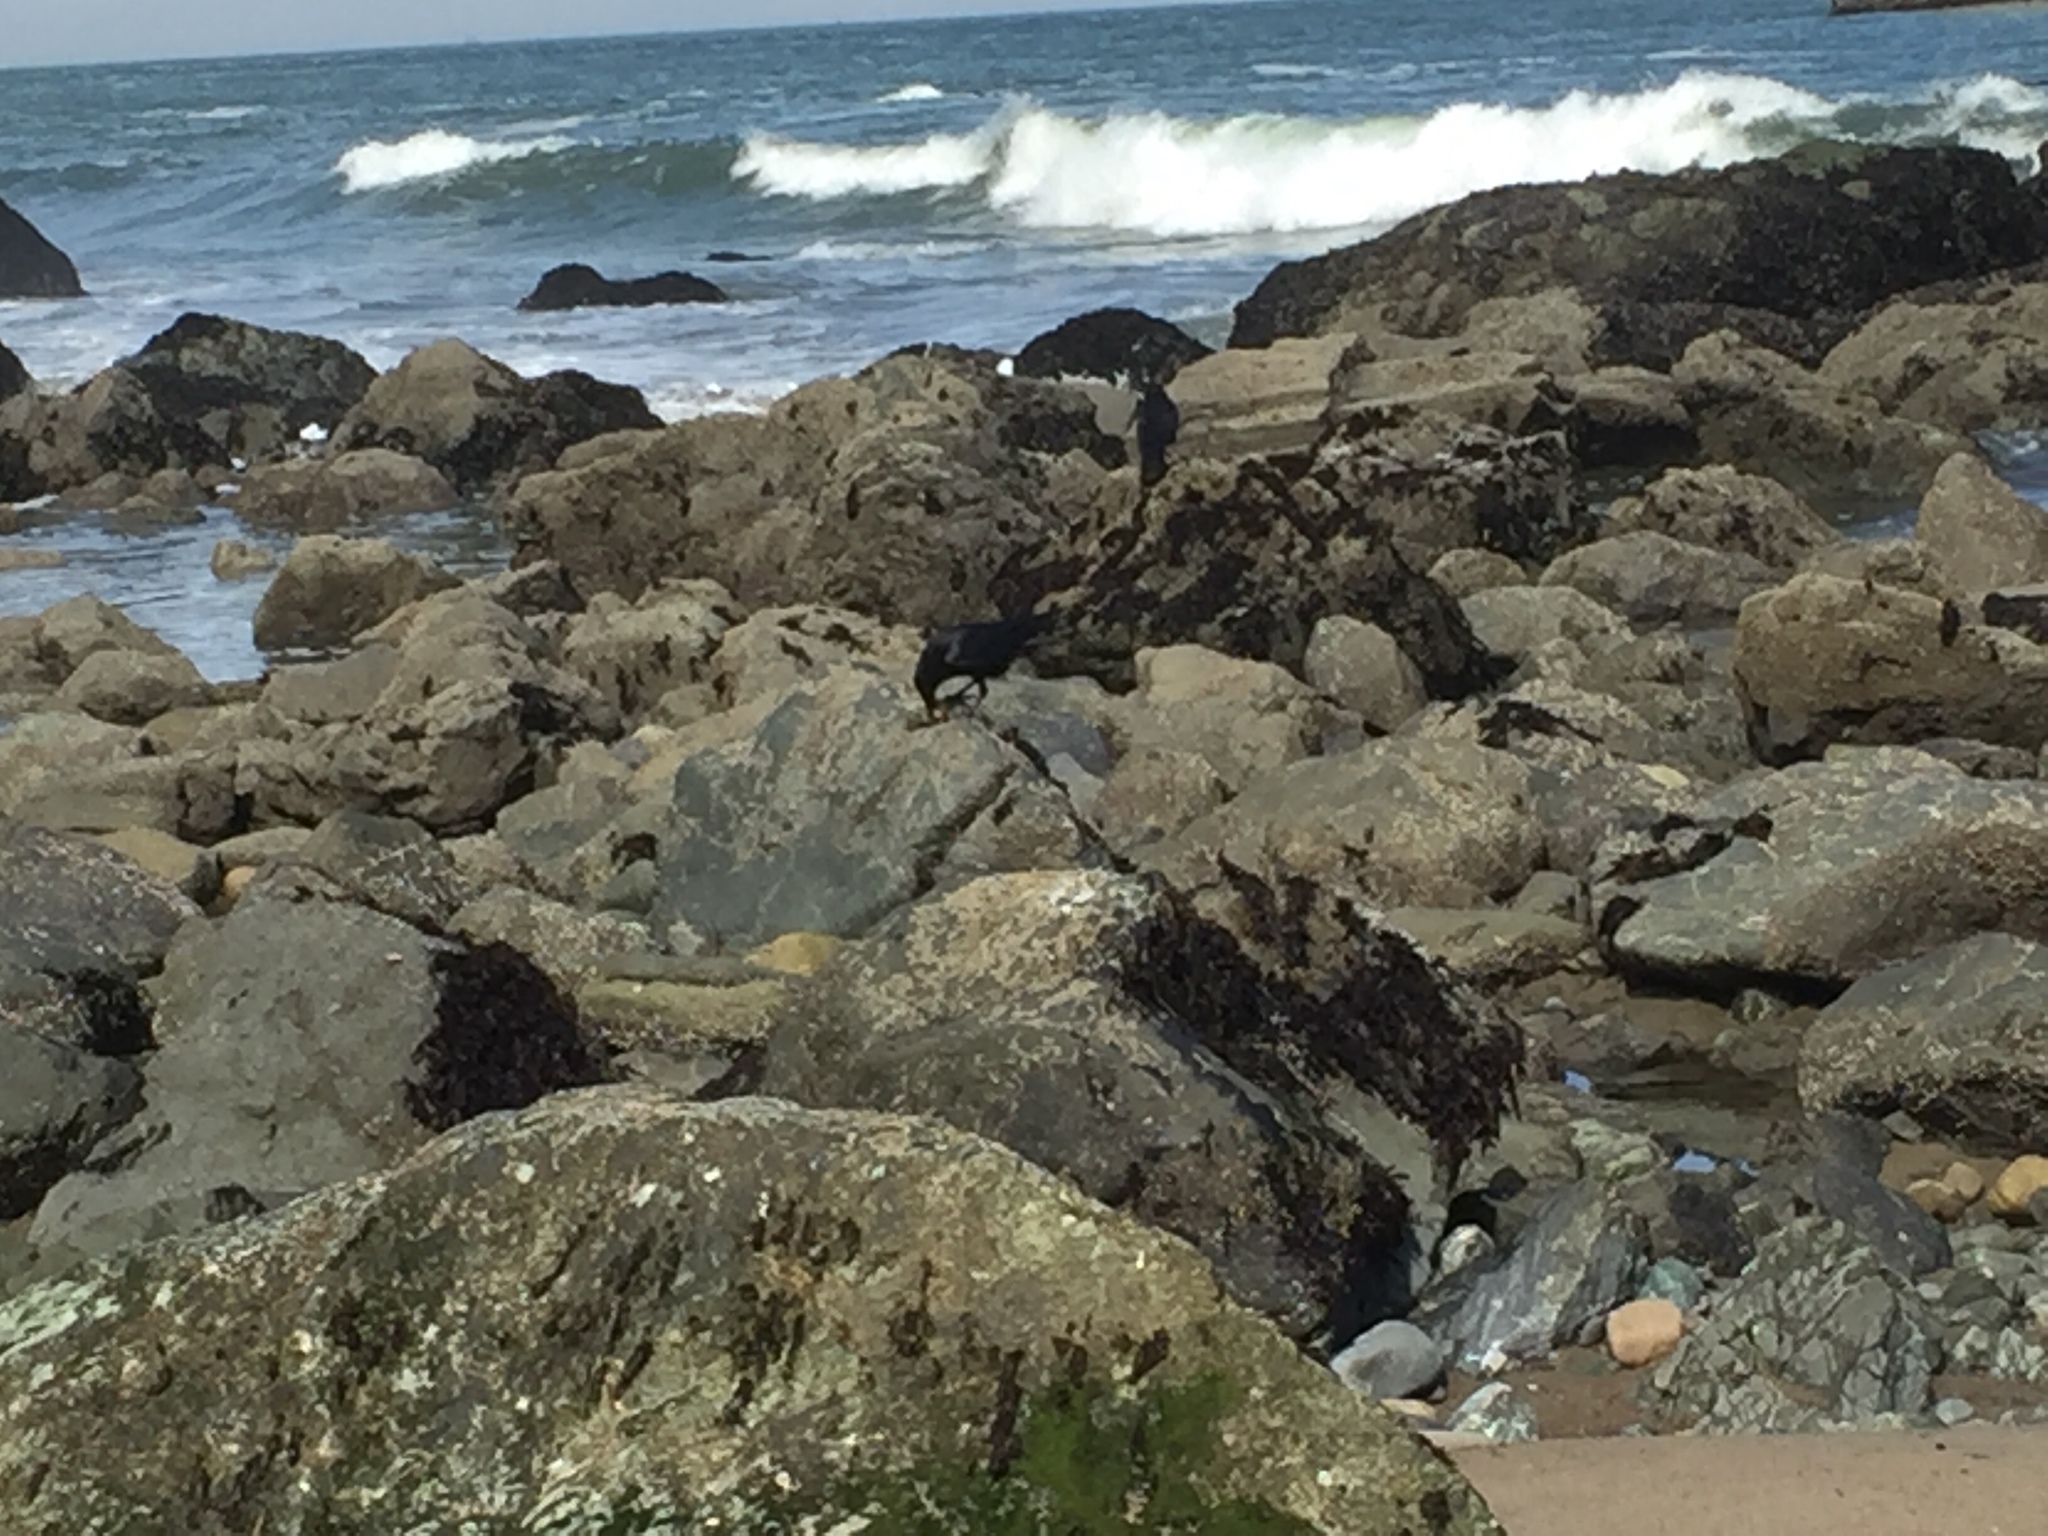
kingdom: Animalia
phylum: Chordata
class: Aves
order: Passeriformes
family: Corvidae
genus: Corvus
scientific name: Corvus corax
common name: Common raven
